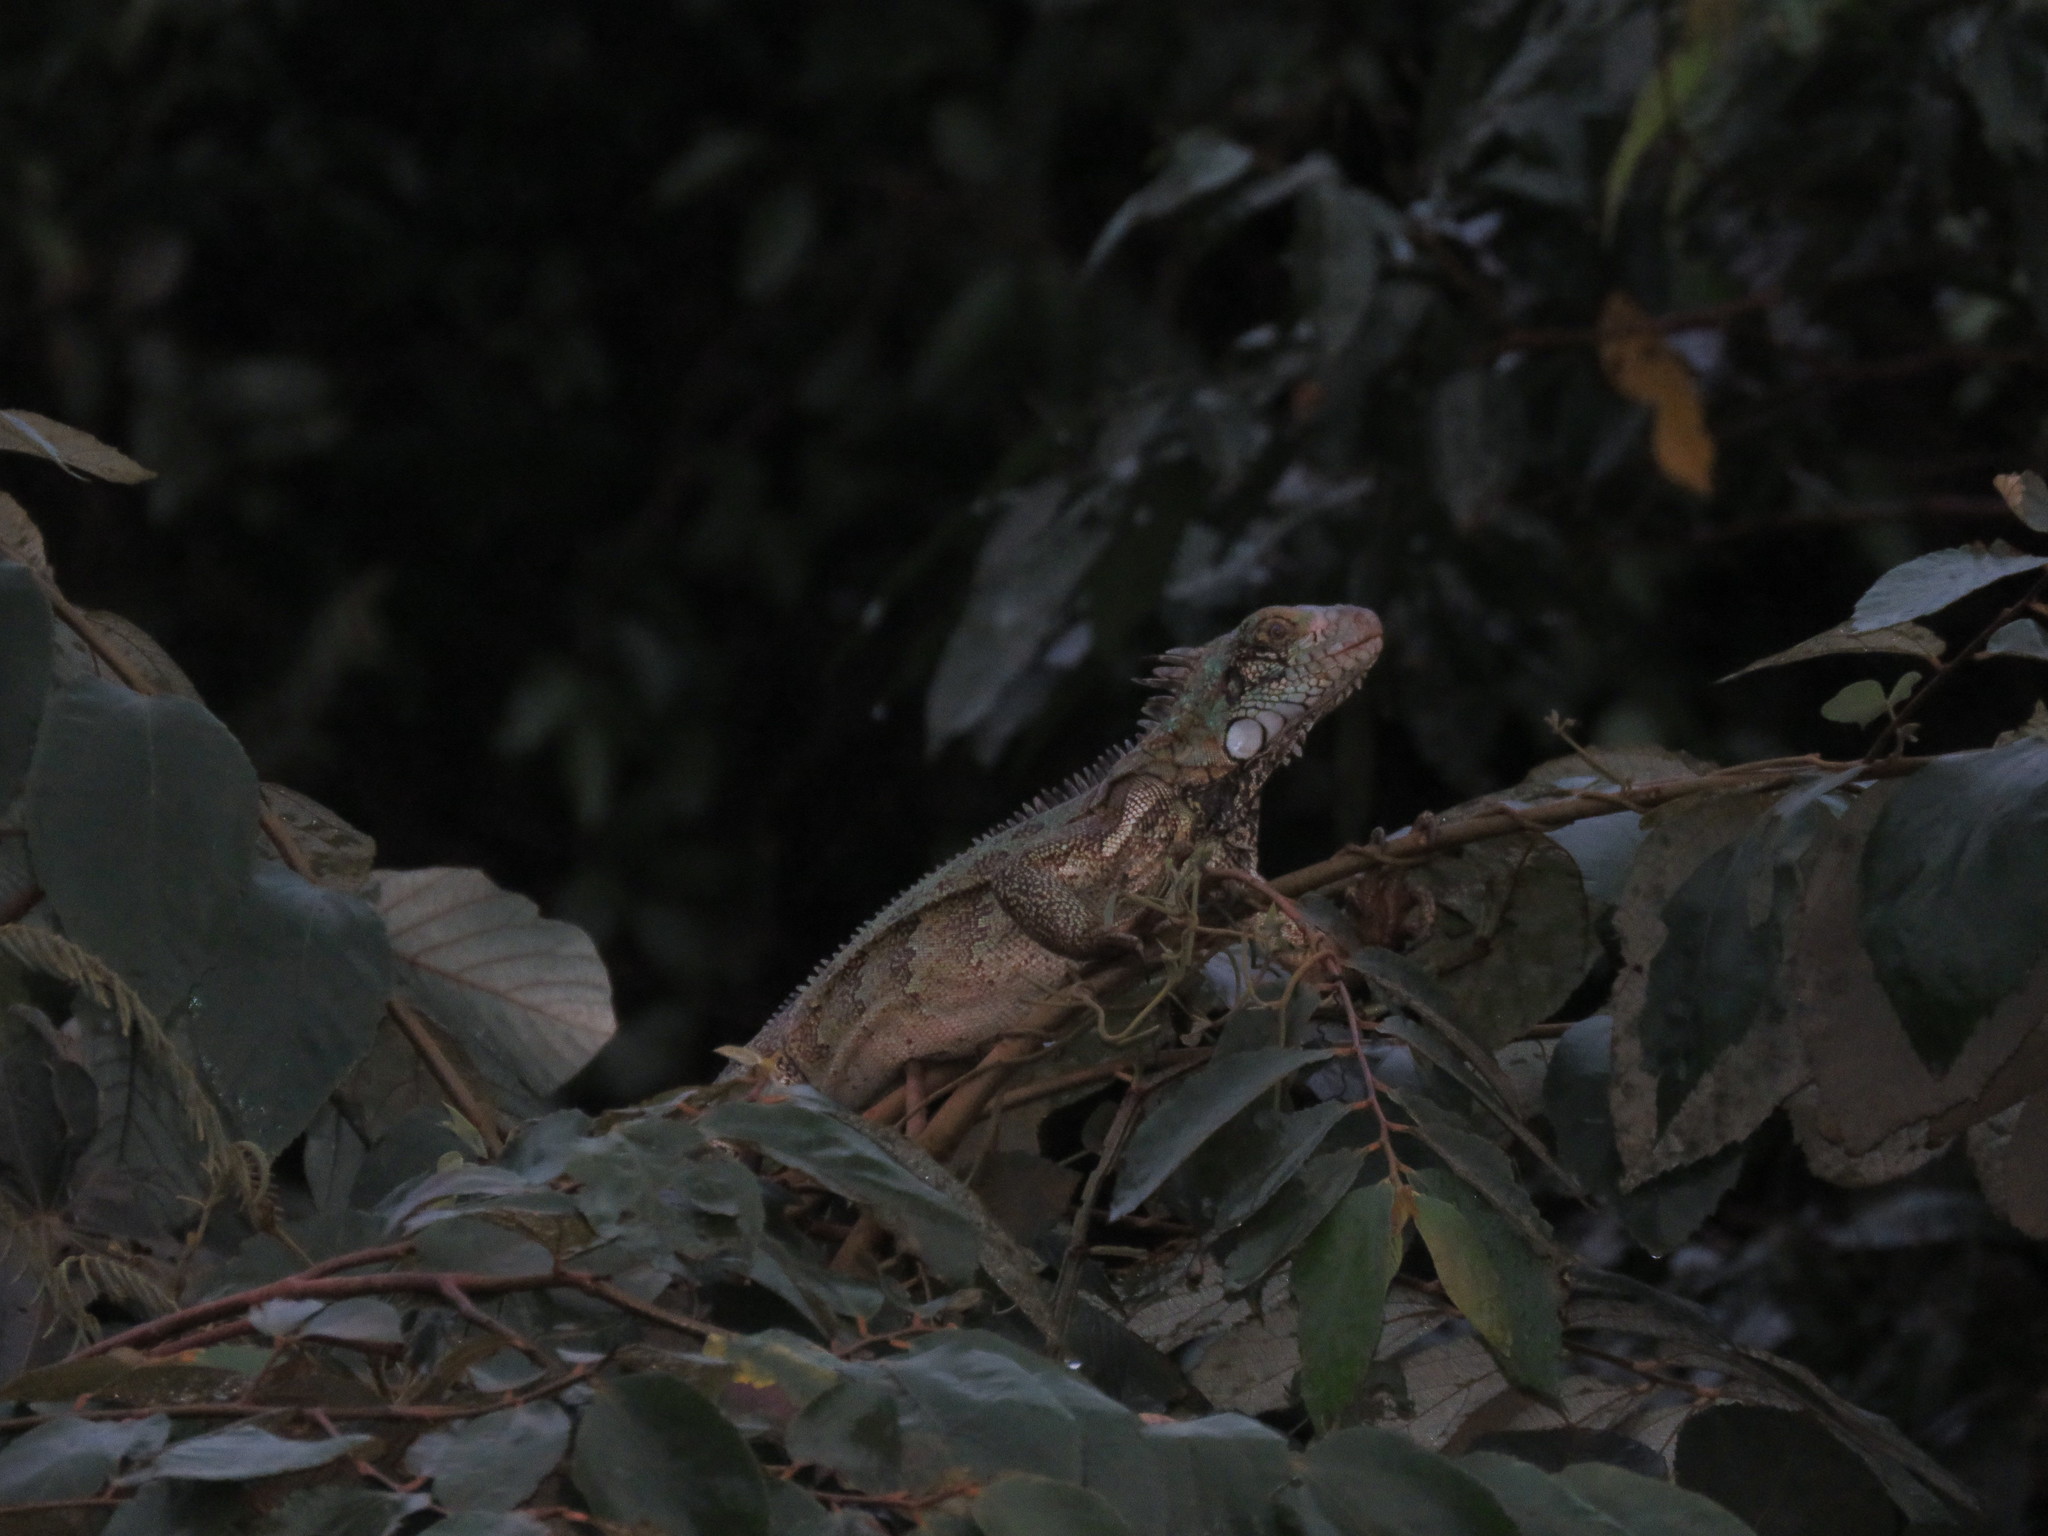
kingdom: Animalia
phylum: Chordata
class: Squamata
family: Iguanidae
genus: Iguana
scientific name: Iguana iguana
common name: Green iguana
